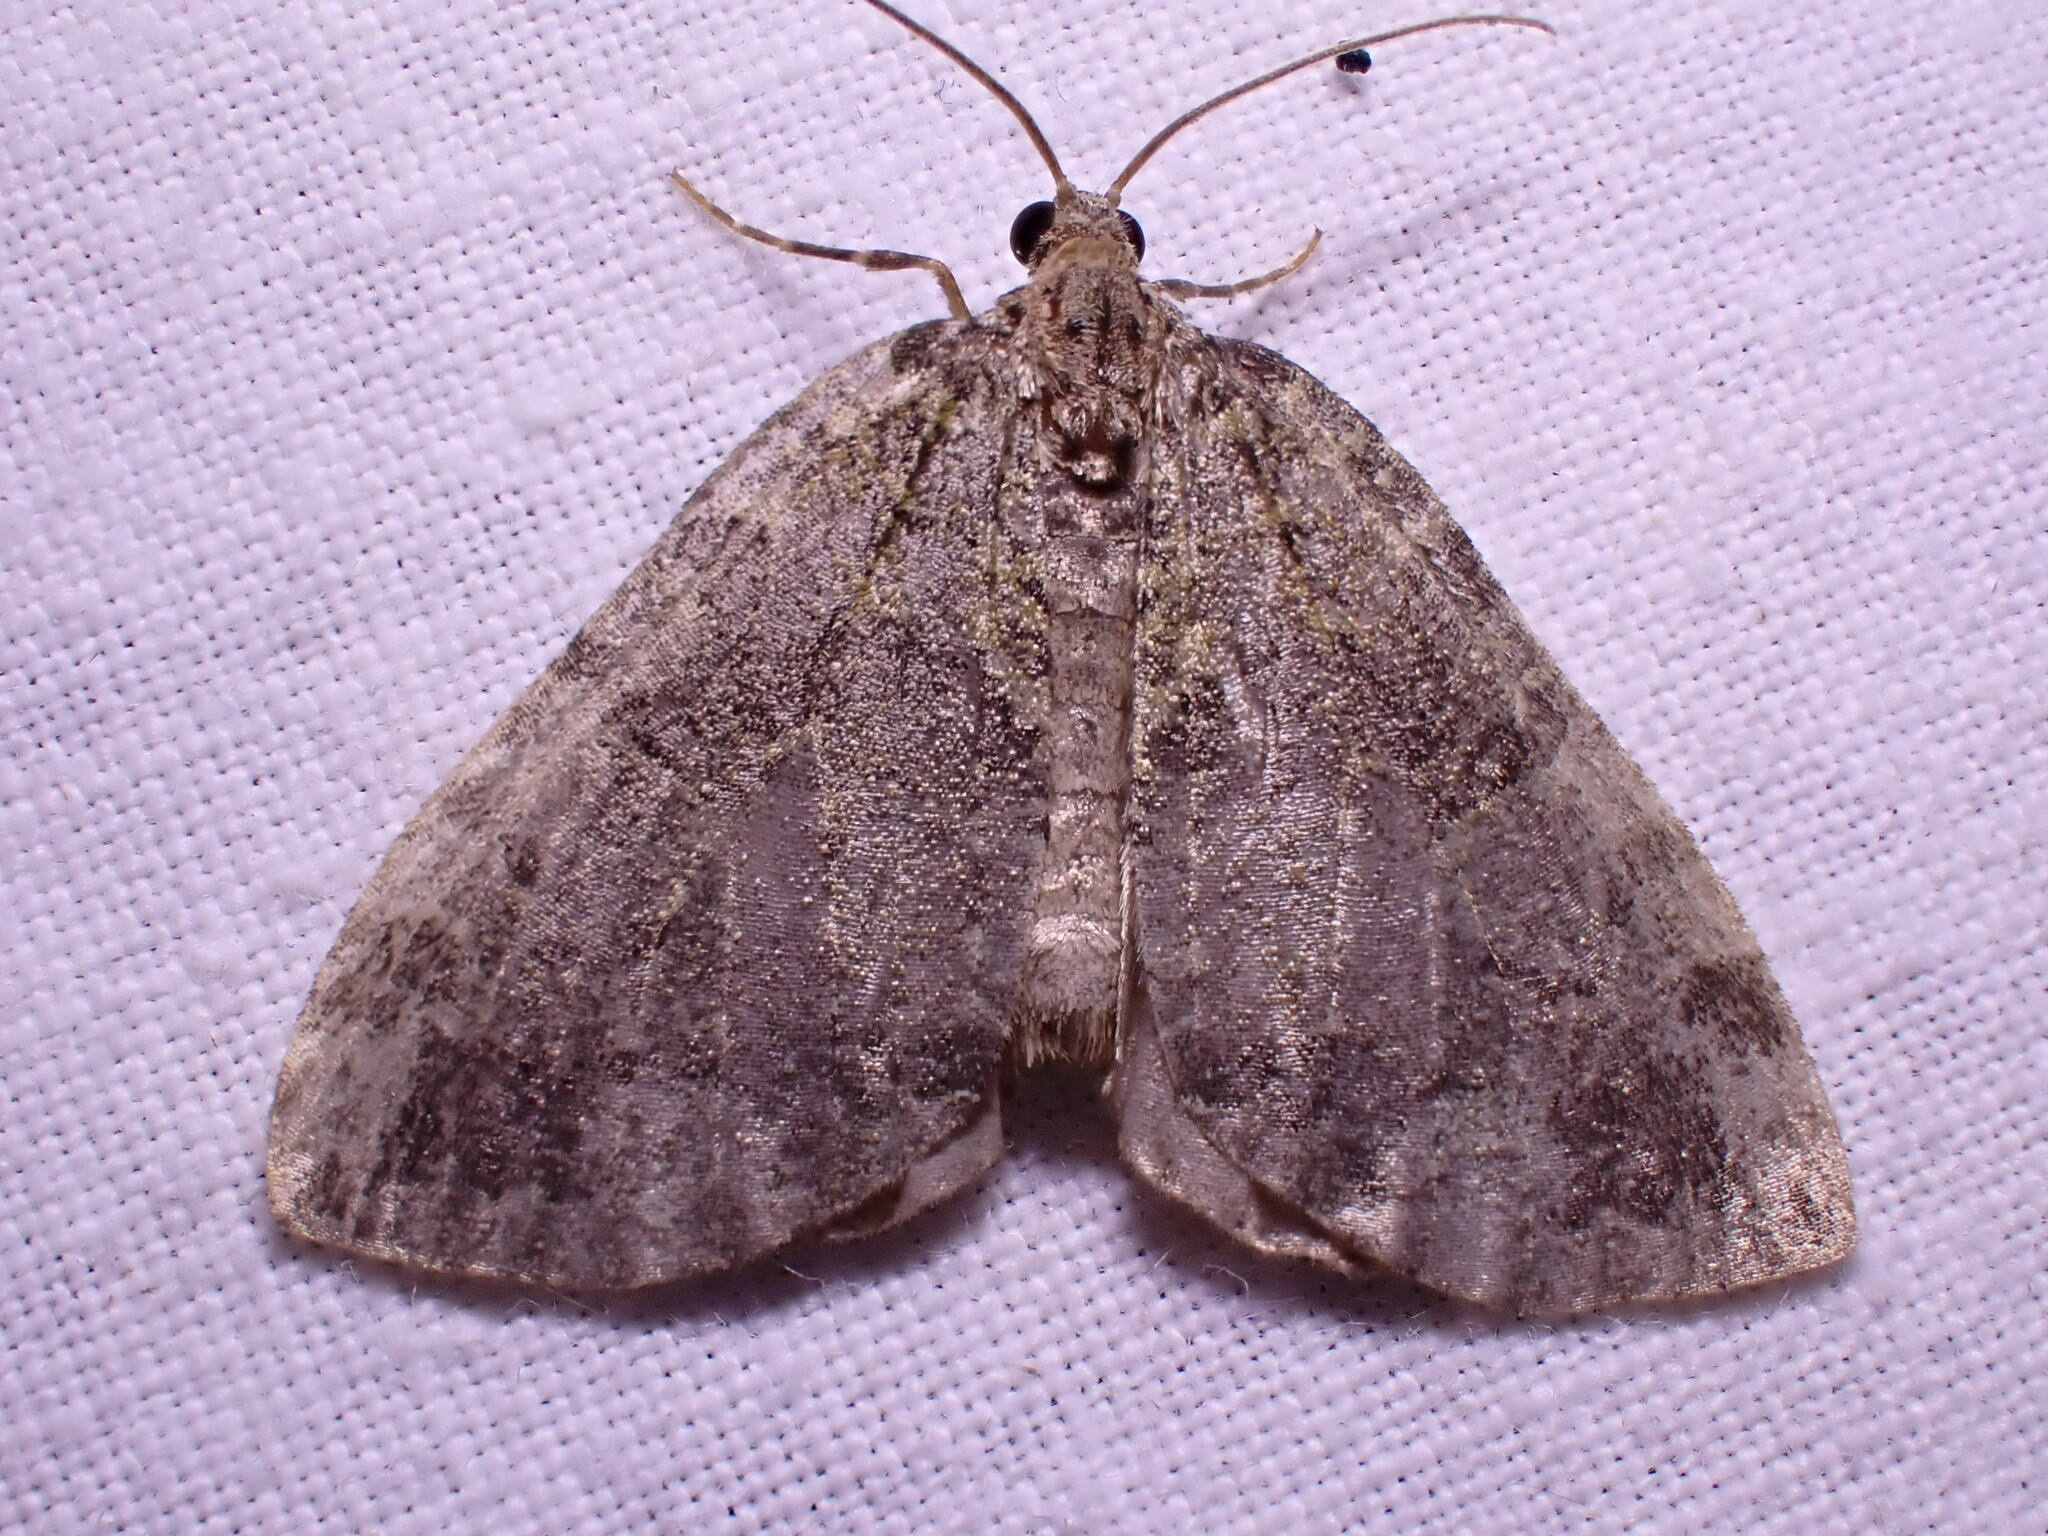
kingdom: Animalia
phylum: Arthropoda
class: Insecta
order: Lepidoptera
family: Geometridae
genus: Hydriomena
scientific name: Hydriomena furcata
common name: July highflyer
